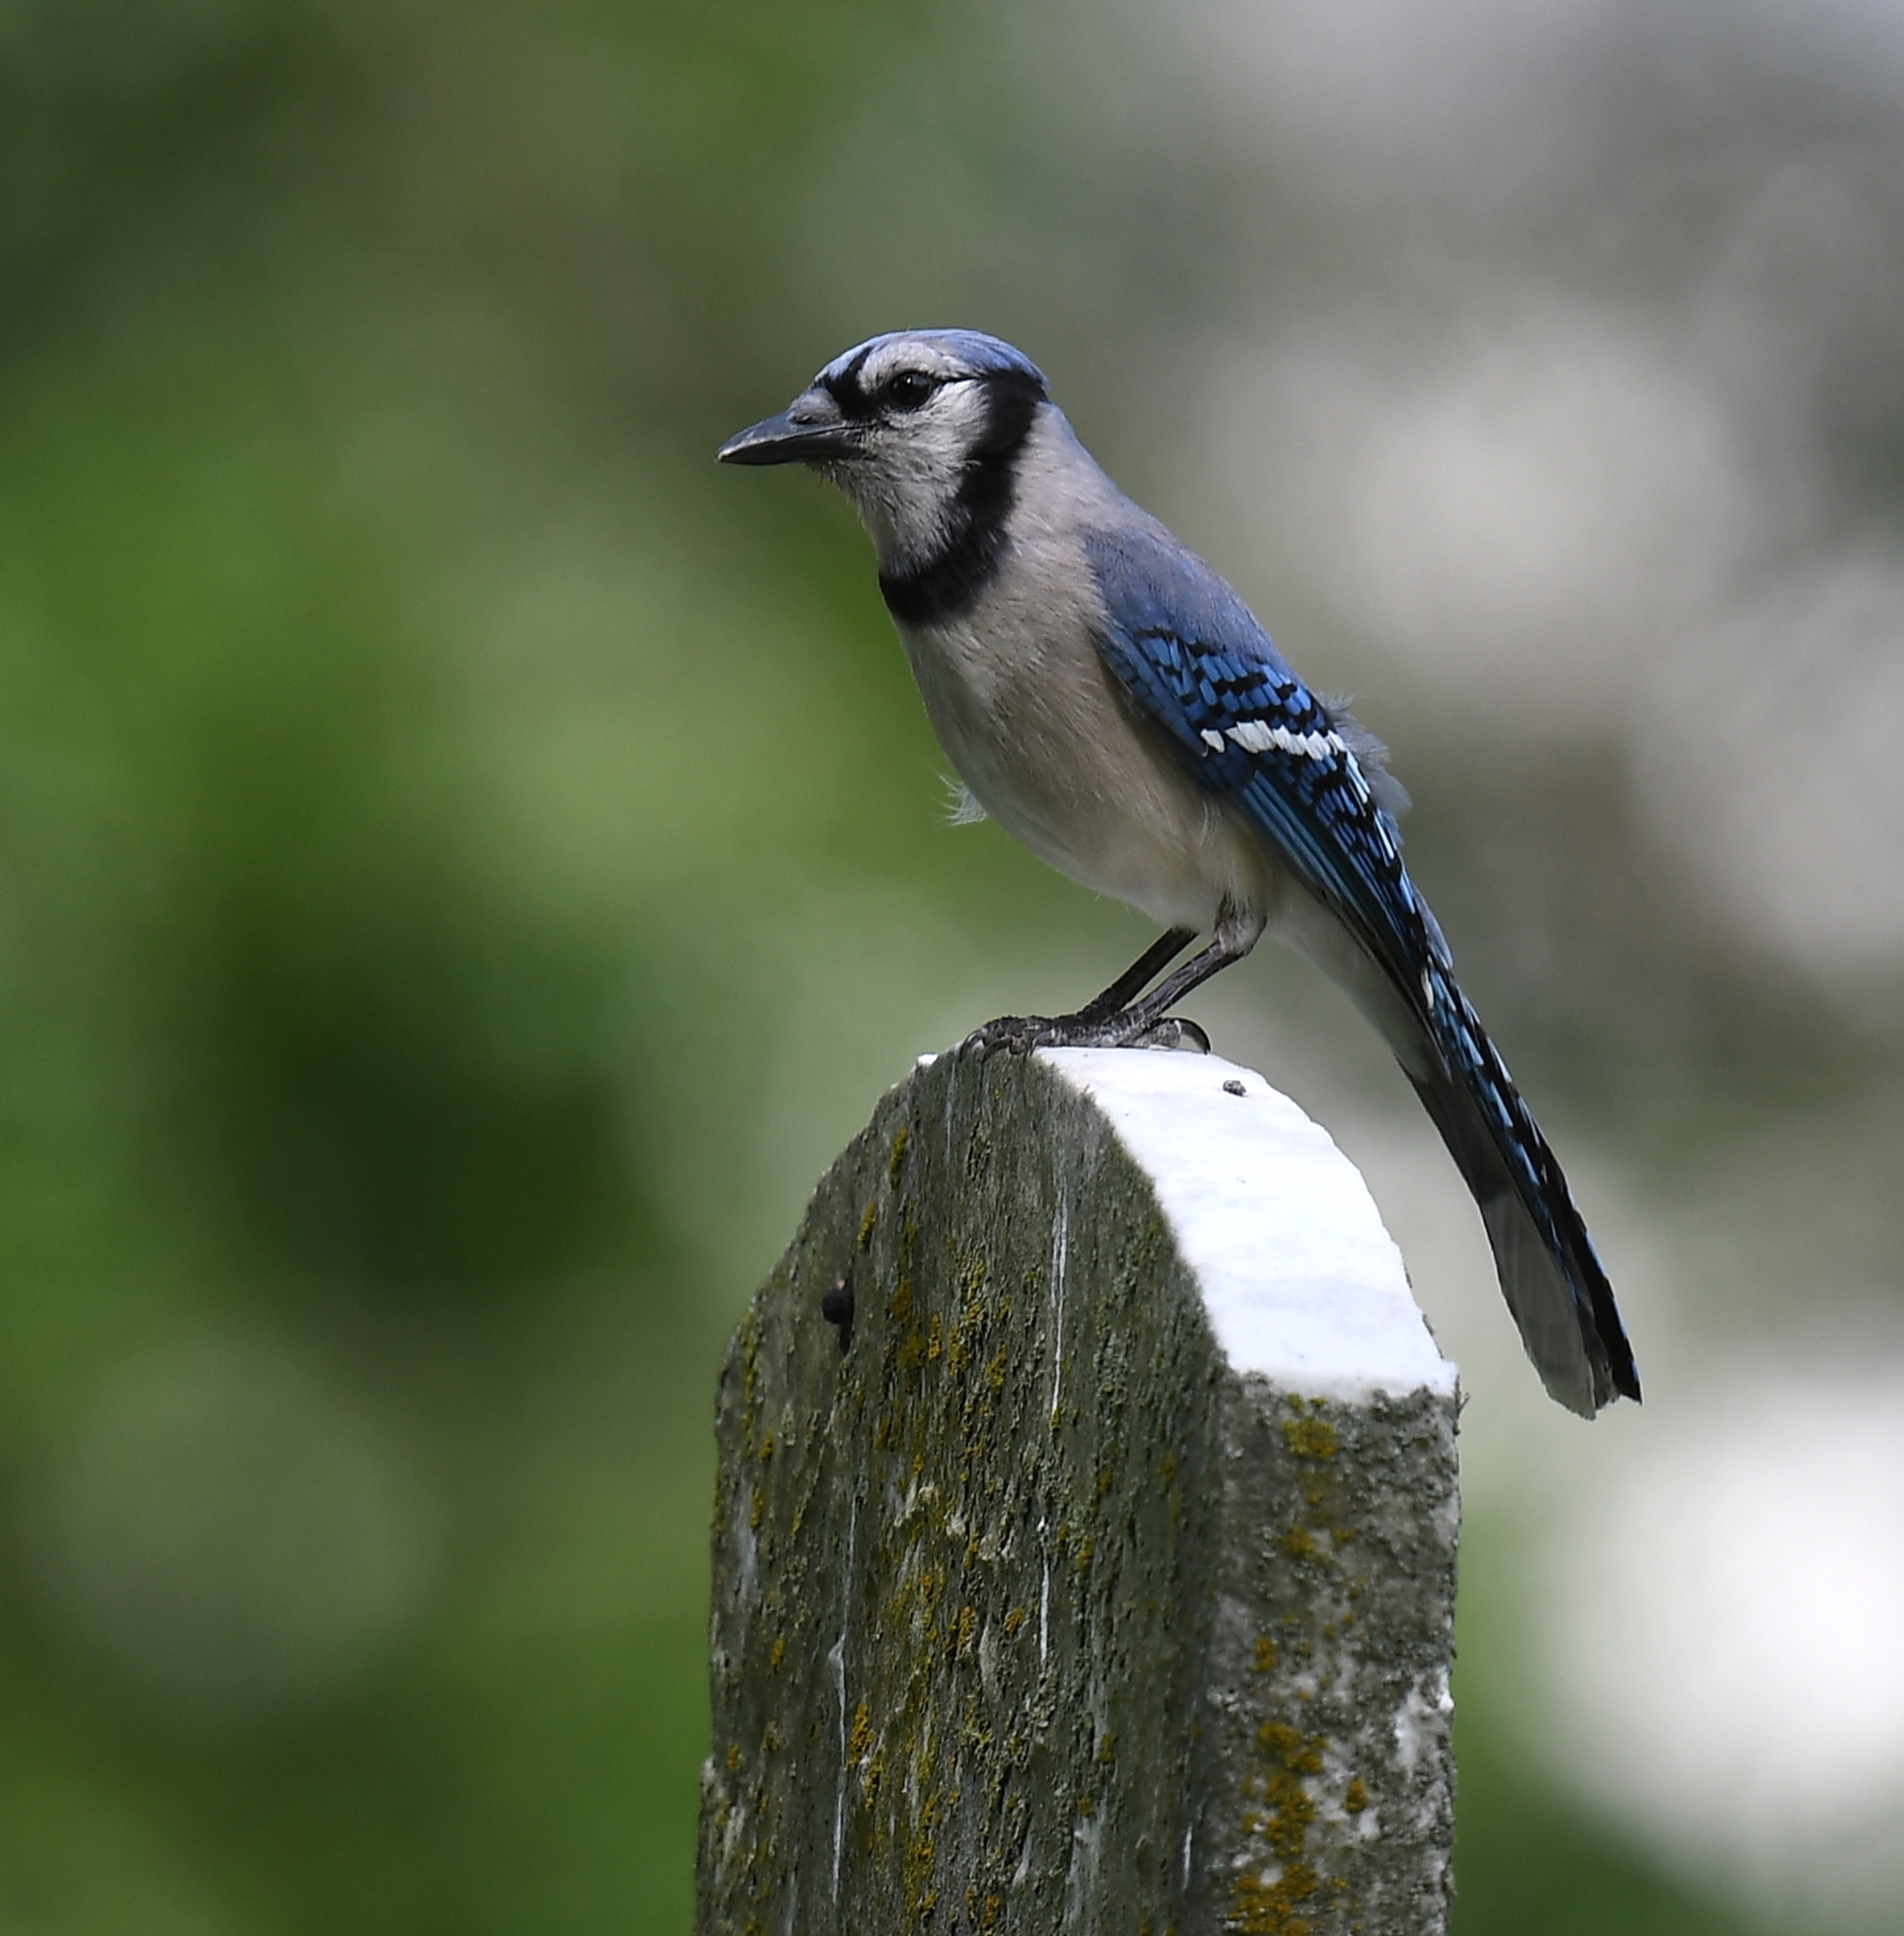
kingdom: Animalia
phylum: Chordata
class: Aves
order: Passeriformes
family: Corvidae
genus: Cyanocitta
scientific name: Cyanocitta cristata
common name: Blue jay
